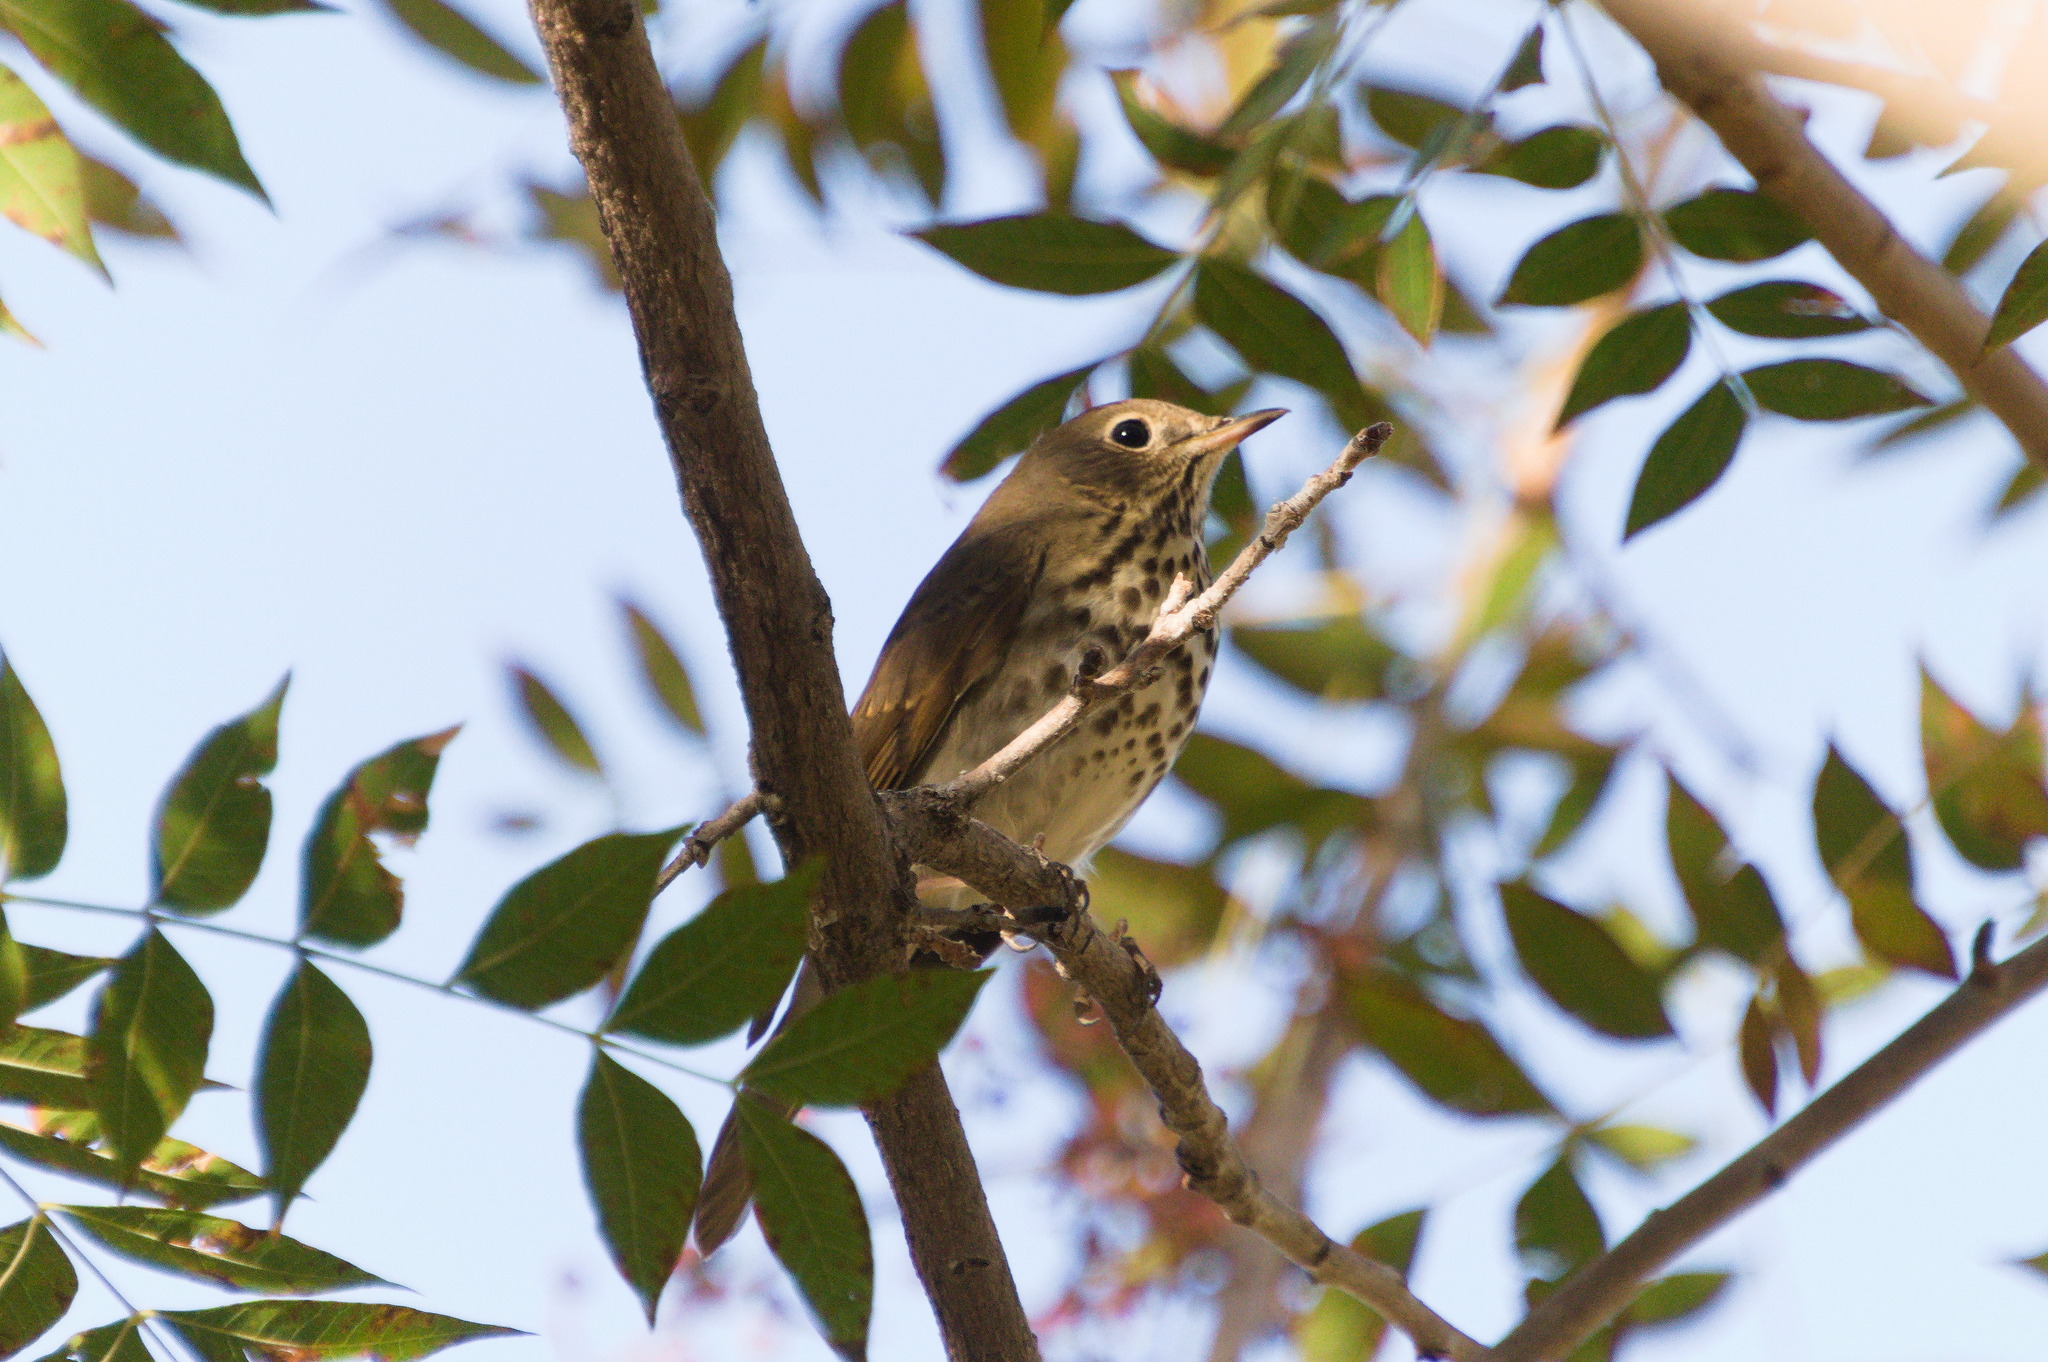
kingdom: Animalia
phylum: Chordata
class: Aves
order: Passeriformes
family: Turdidae
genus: Catharus
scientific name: Catharus guttatus
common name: Hermit thrush
